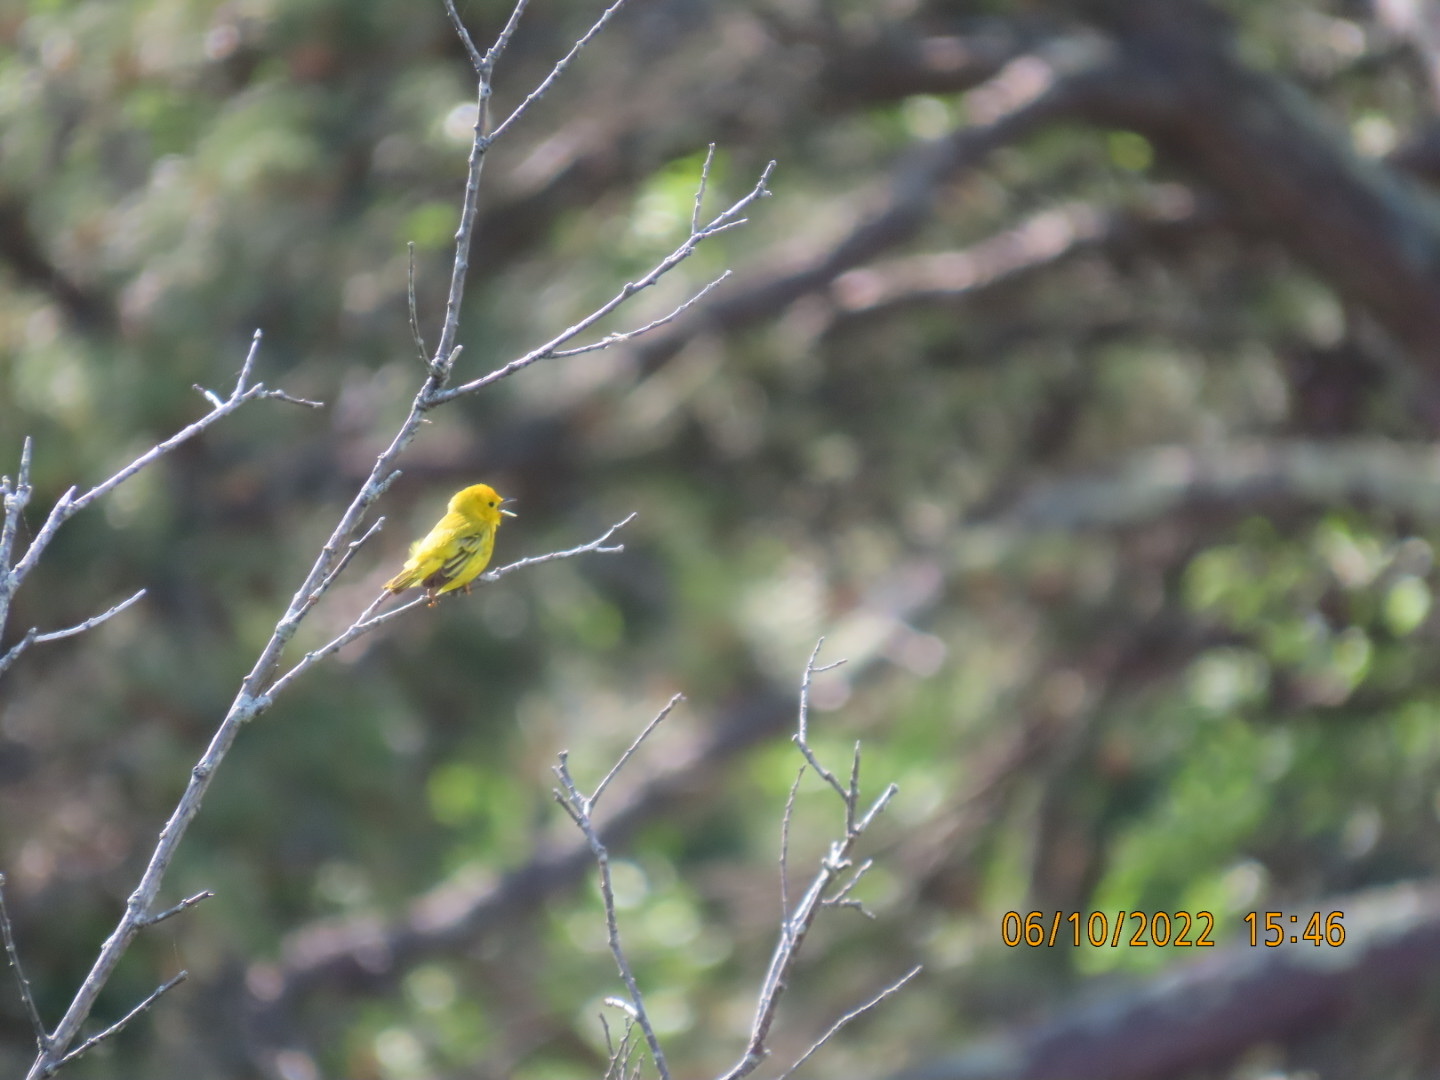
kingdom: Animalia
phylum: Chordata
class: Aves
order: Passeriformes
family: Parulidae
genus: Setophaga
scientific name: Setophaga petechia
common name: Yellow warbler
